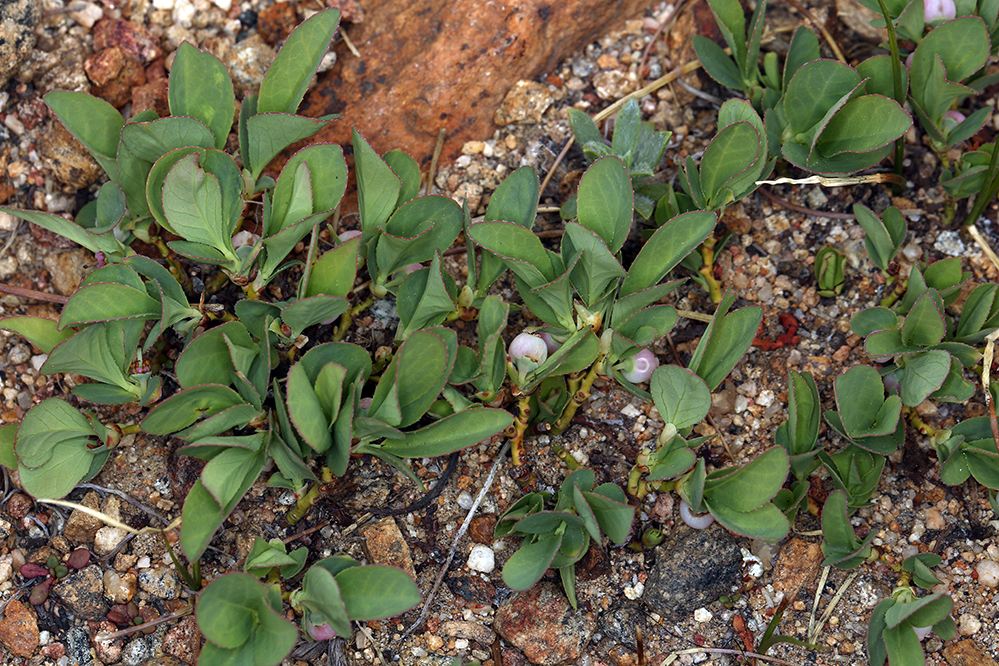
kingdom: Plantae
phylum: Tracheophyta
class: Magnoliopsida
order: Ericales
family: Ericaceae
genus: Vaccinium
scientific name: Vaccinium cespitosum
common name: Dwarf bilberry
